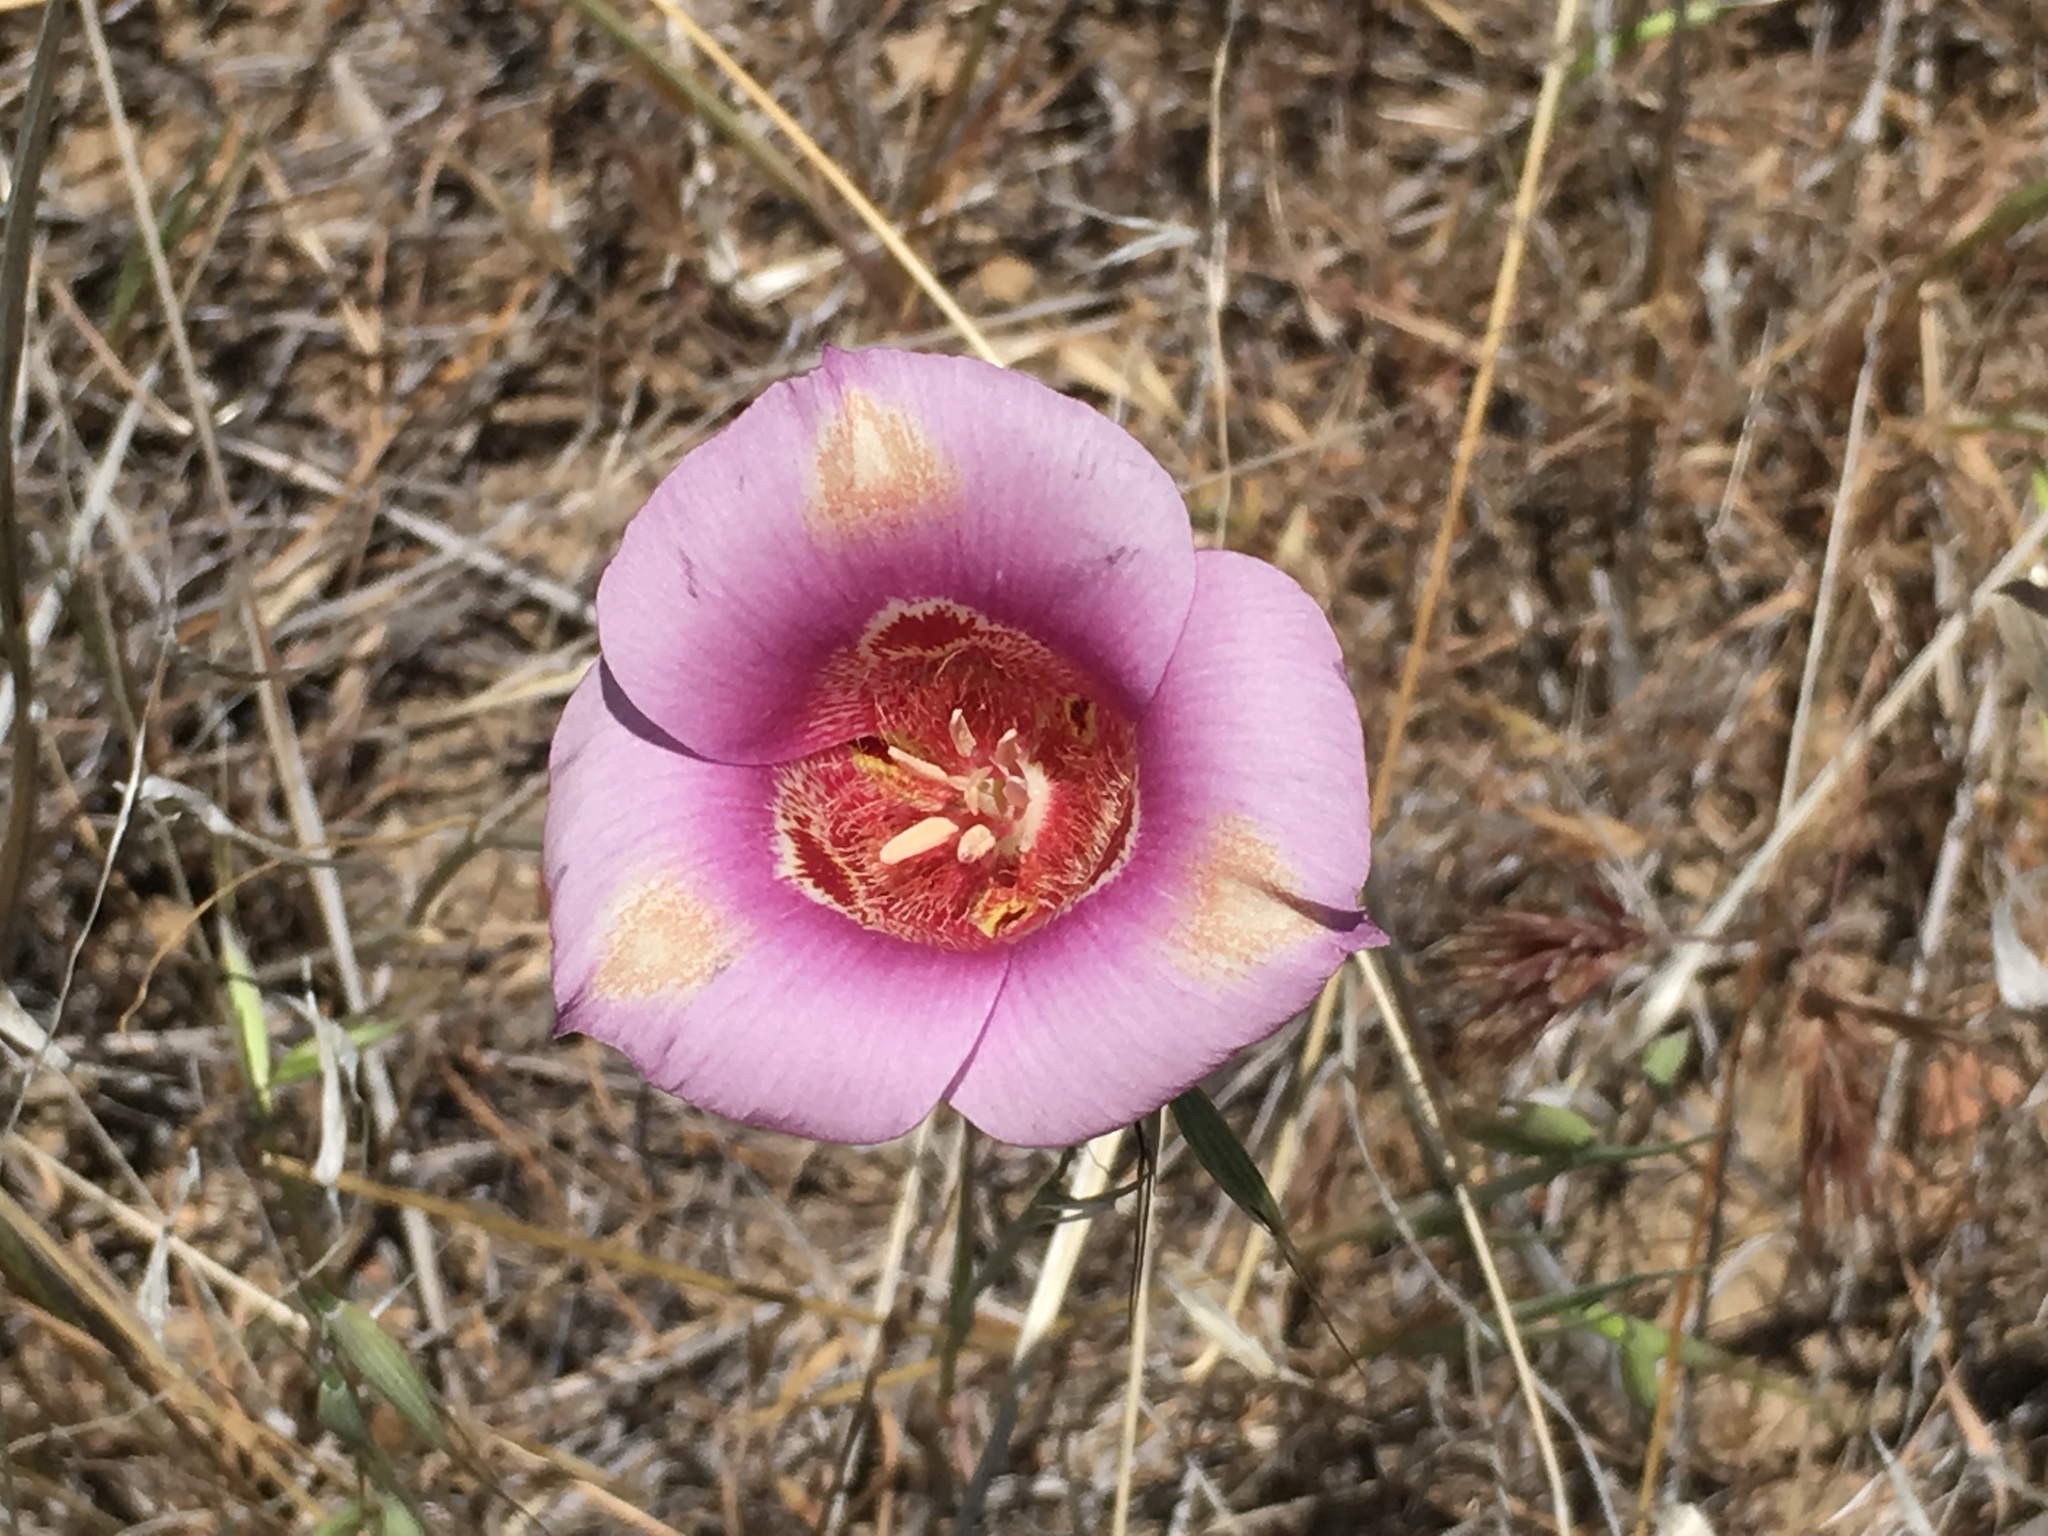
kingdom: Plantae
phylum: Tracheophyta
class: Liliopsida
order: Liliales
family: Liliaceae
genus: Calochortus
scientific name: Calochortus venustus
